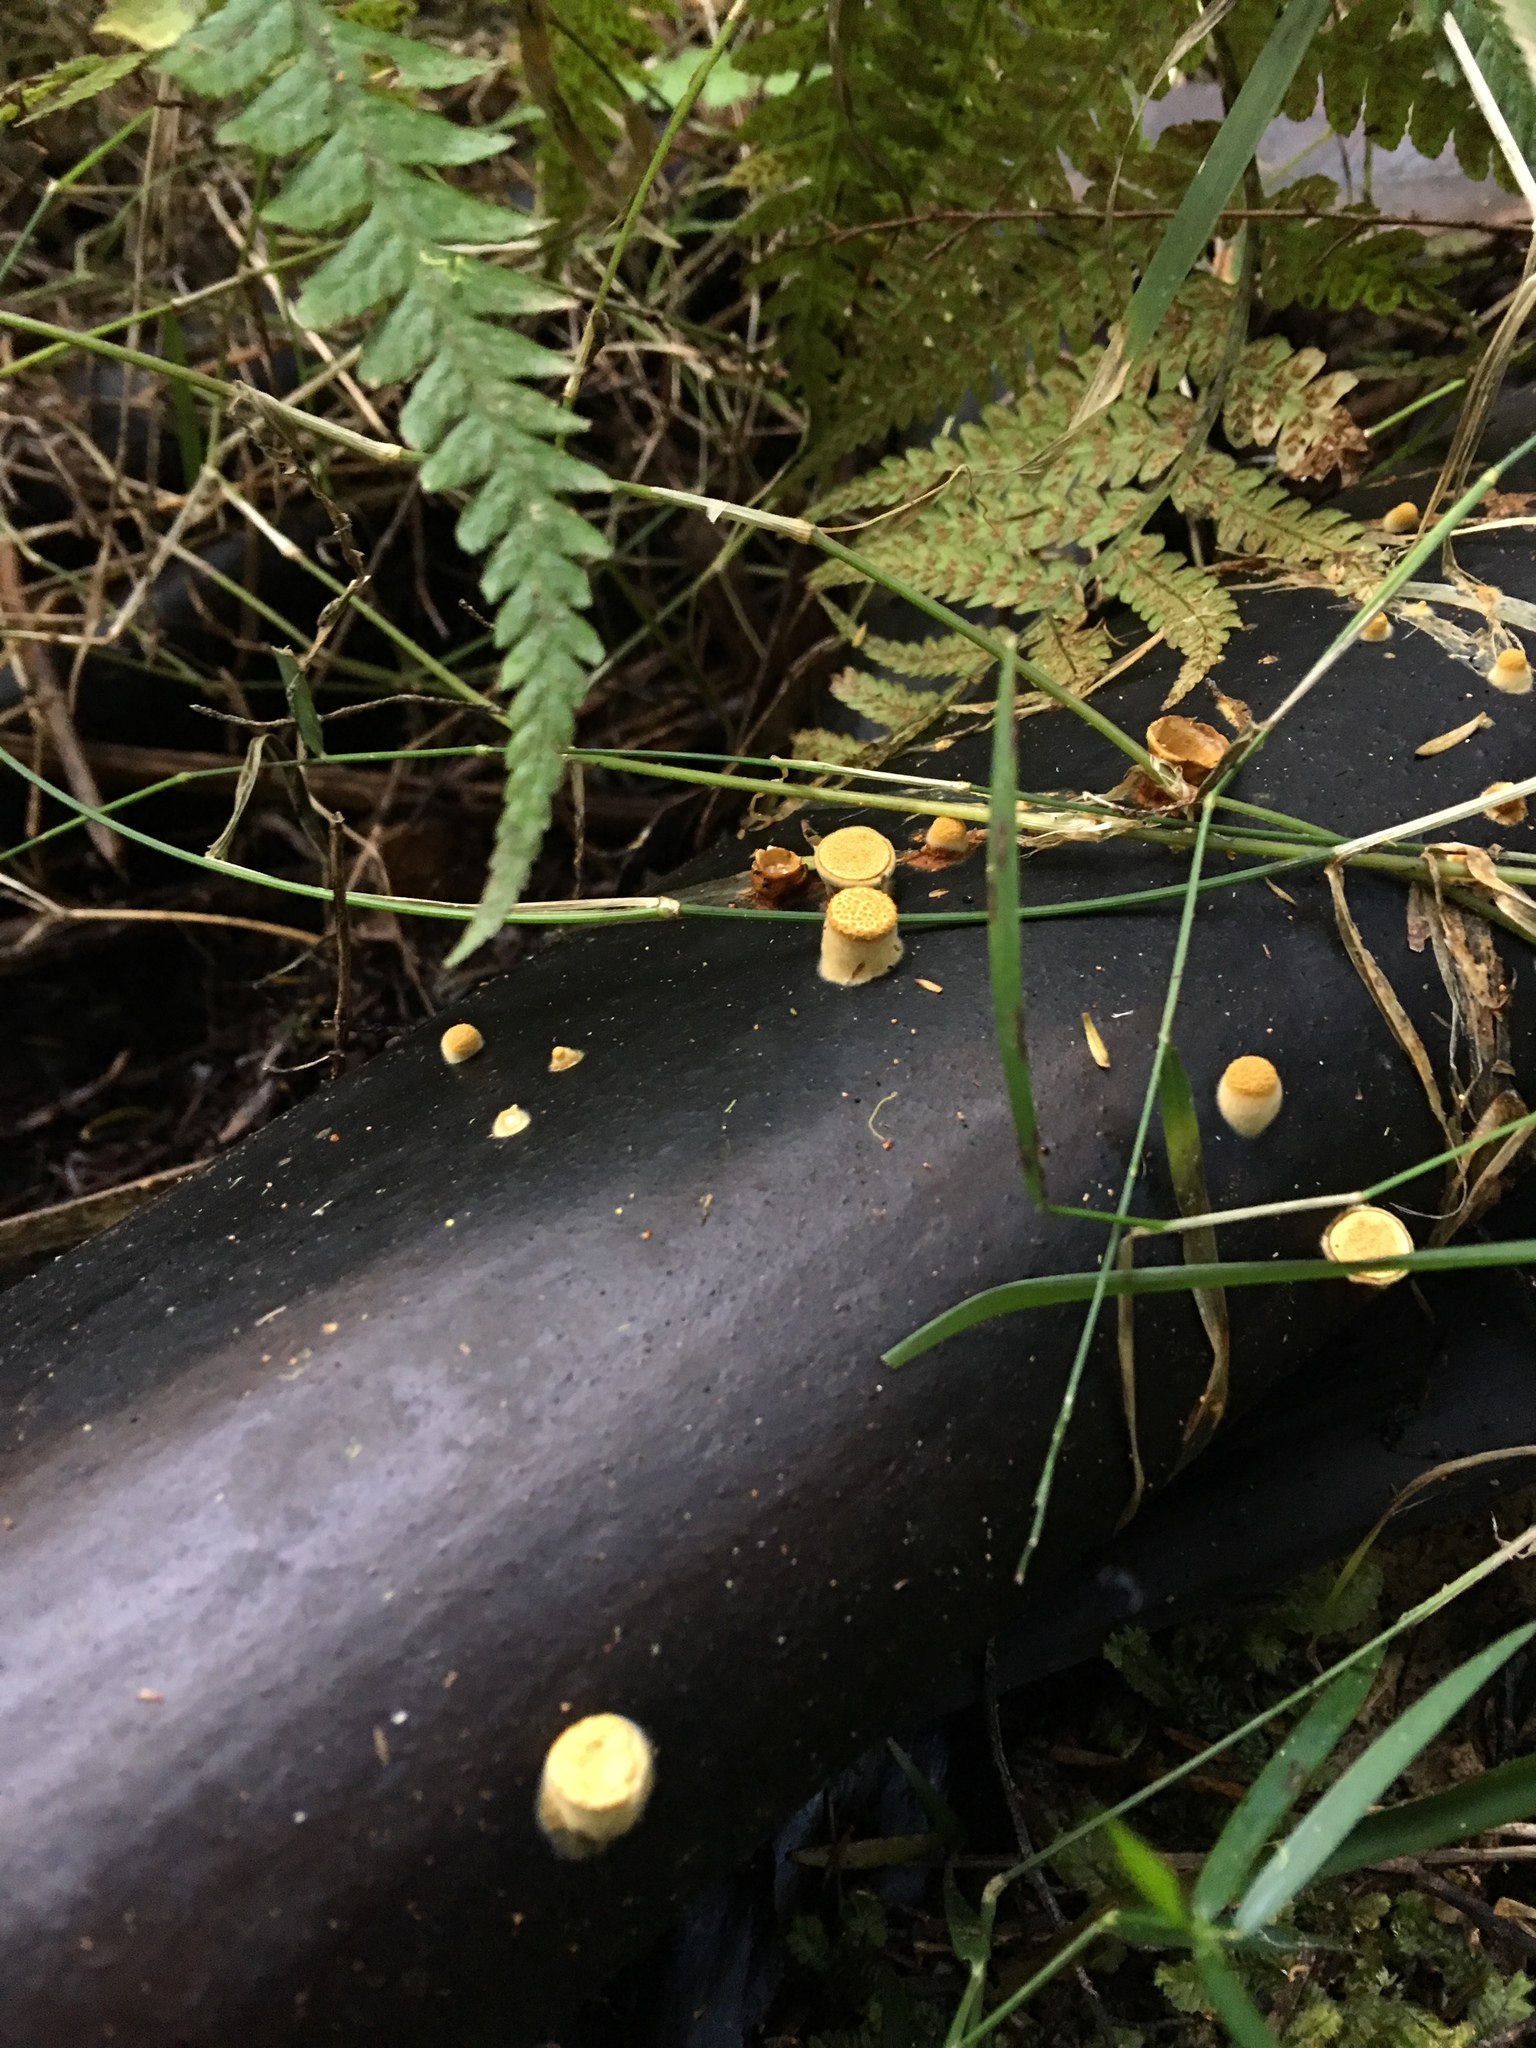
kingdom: Fungi
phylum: Basidiomycota
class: Agaricomycetes
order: Agaricales
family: Nidulariaceae
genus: Crucibulum
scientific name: Crucibulum simile
